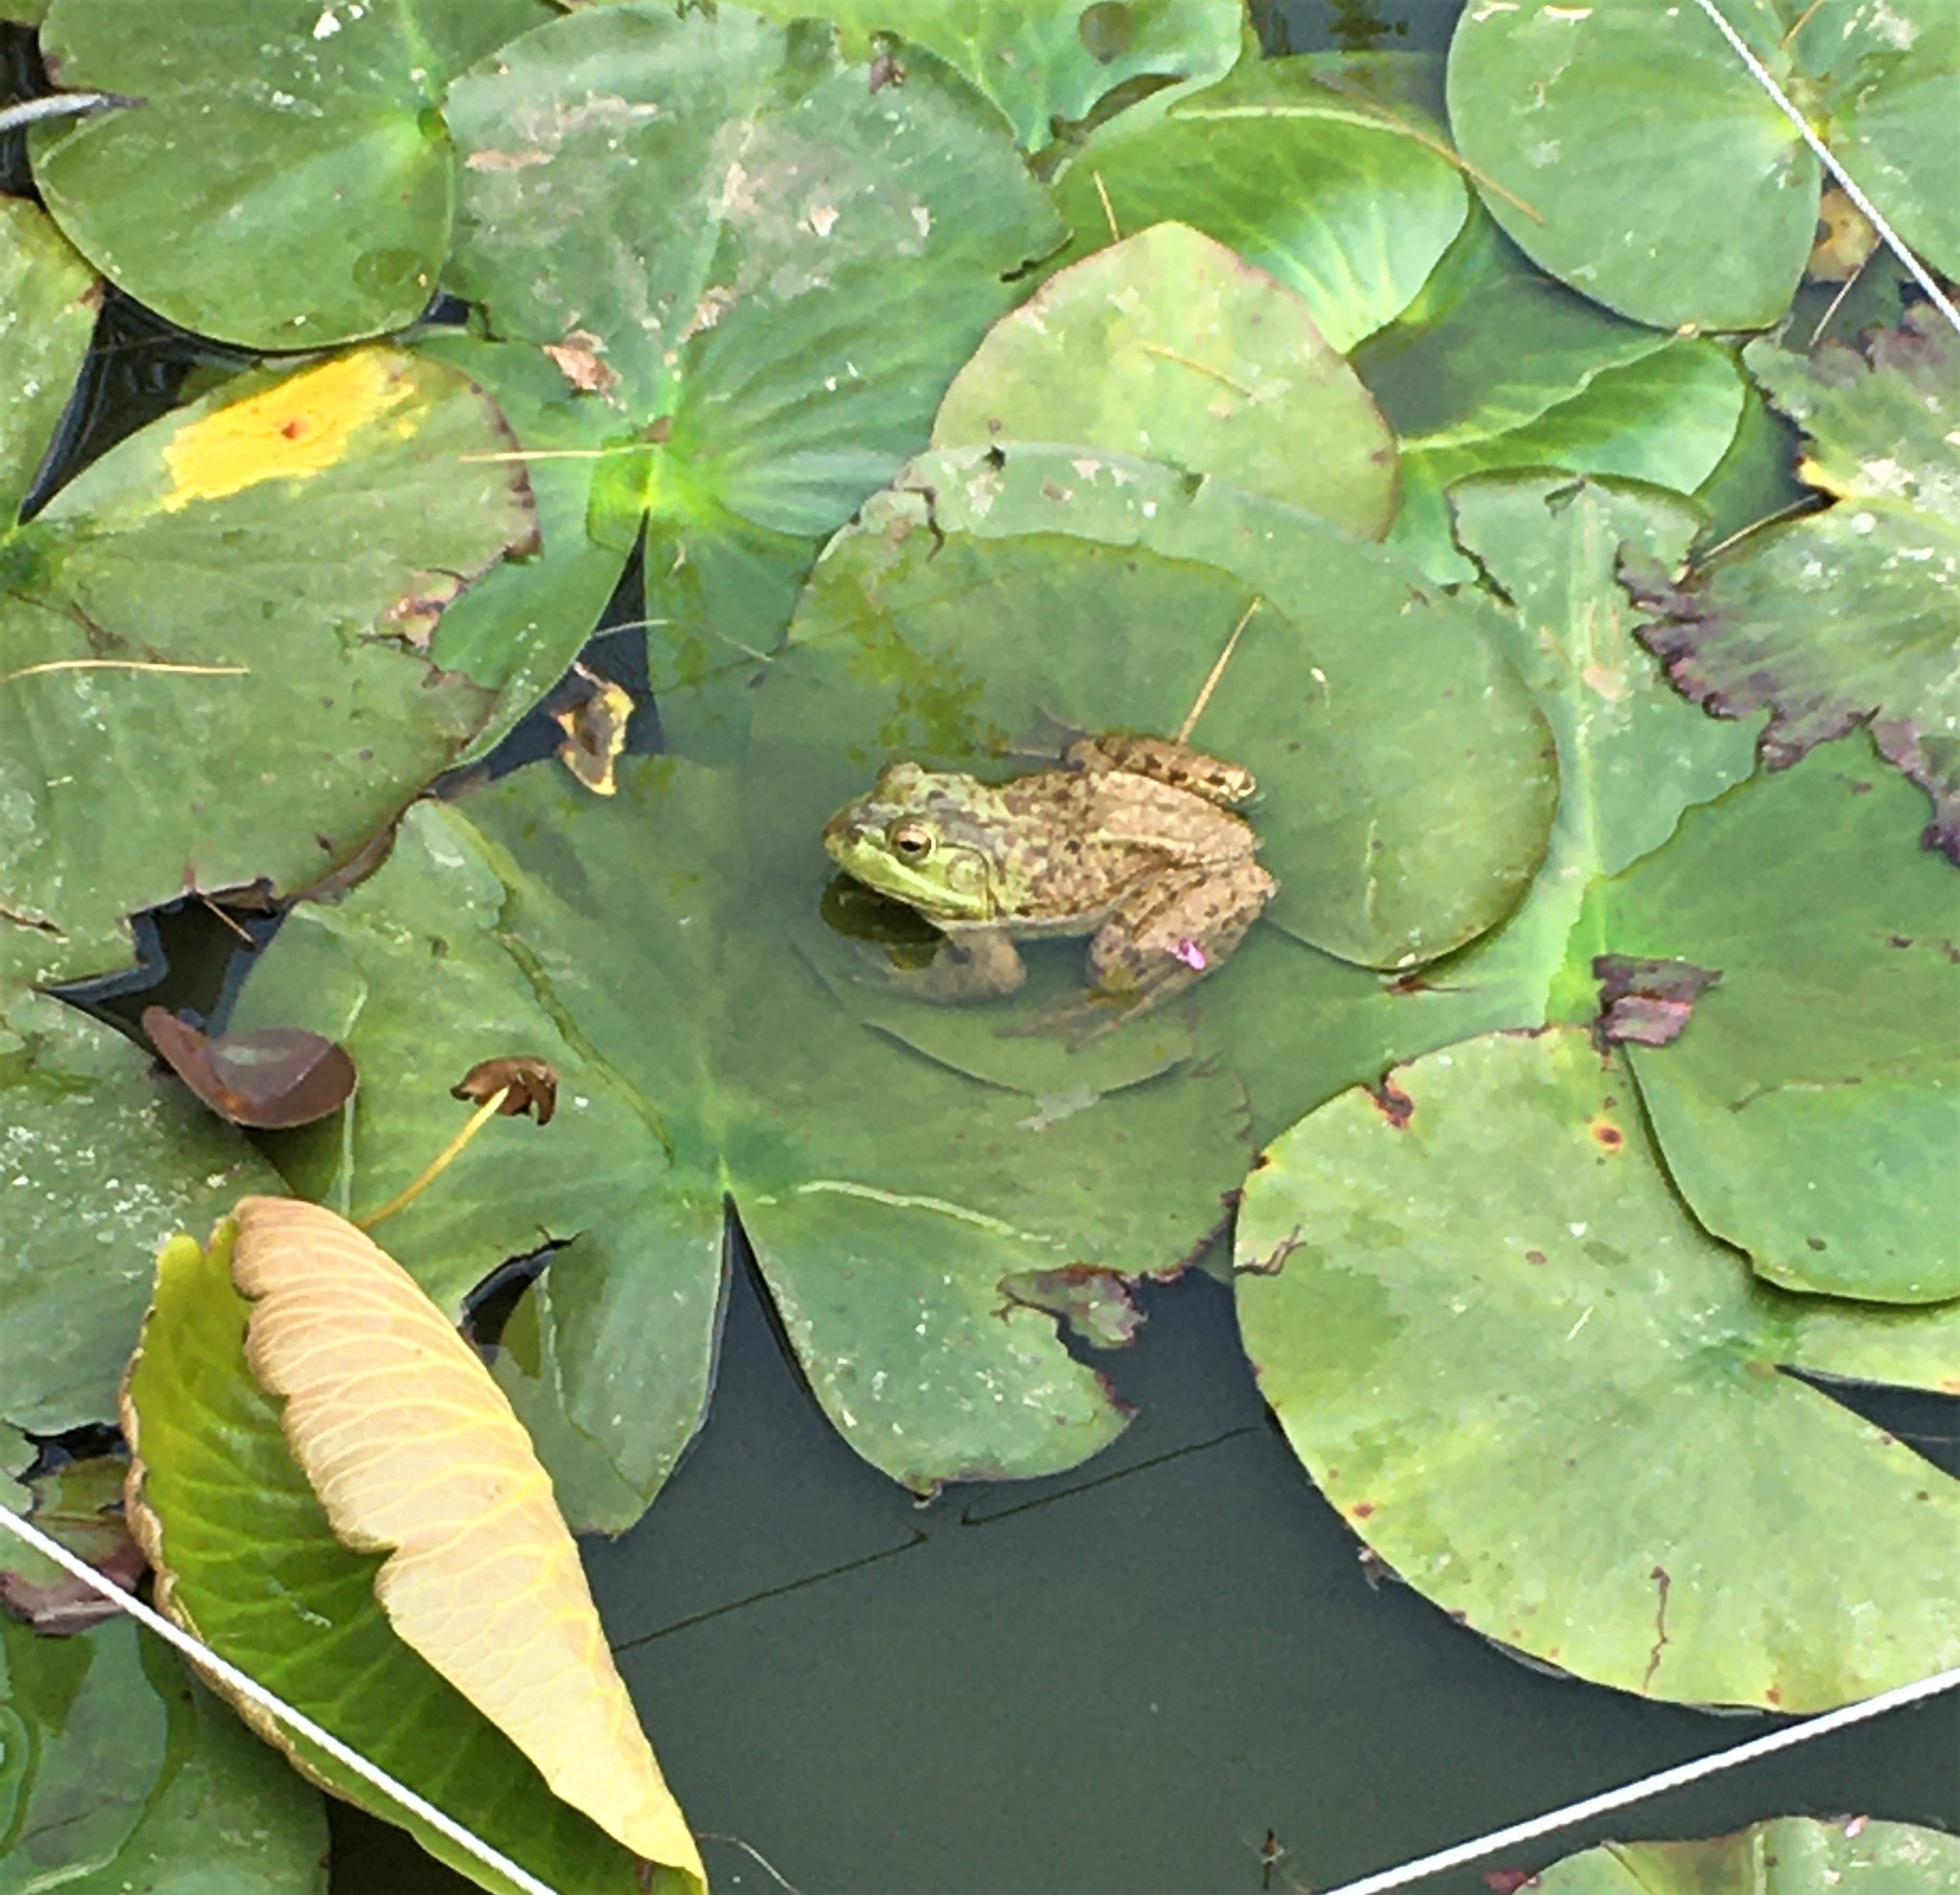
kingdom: Animalia
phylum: Chordata
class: Amphibia
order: Anura
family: Ranidae
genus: Lithobates
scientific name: Lithobates catesbeianus
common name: American bullfrog
